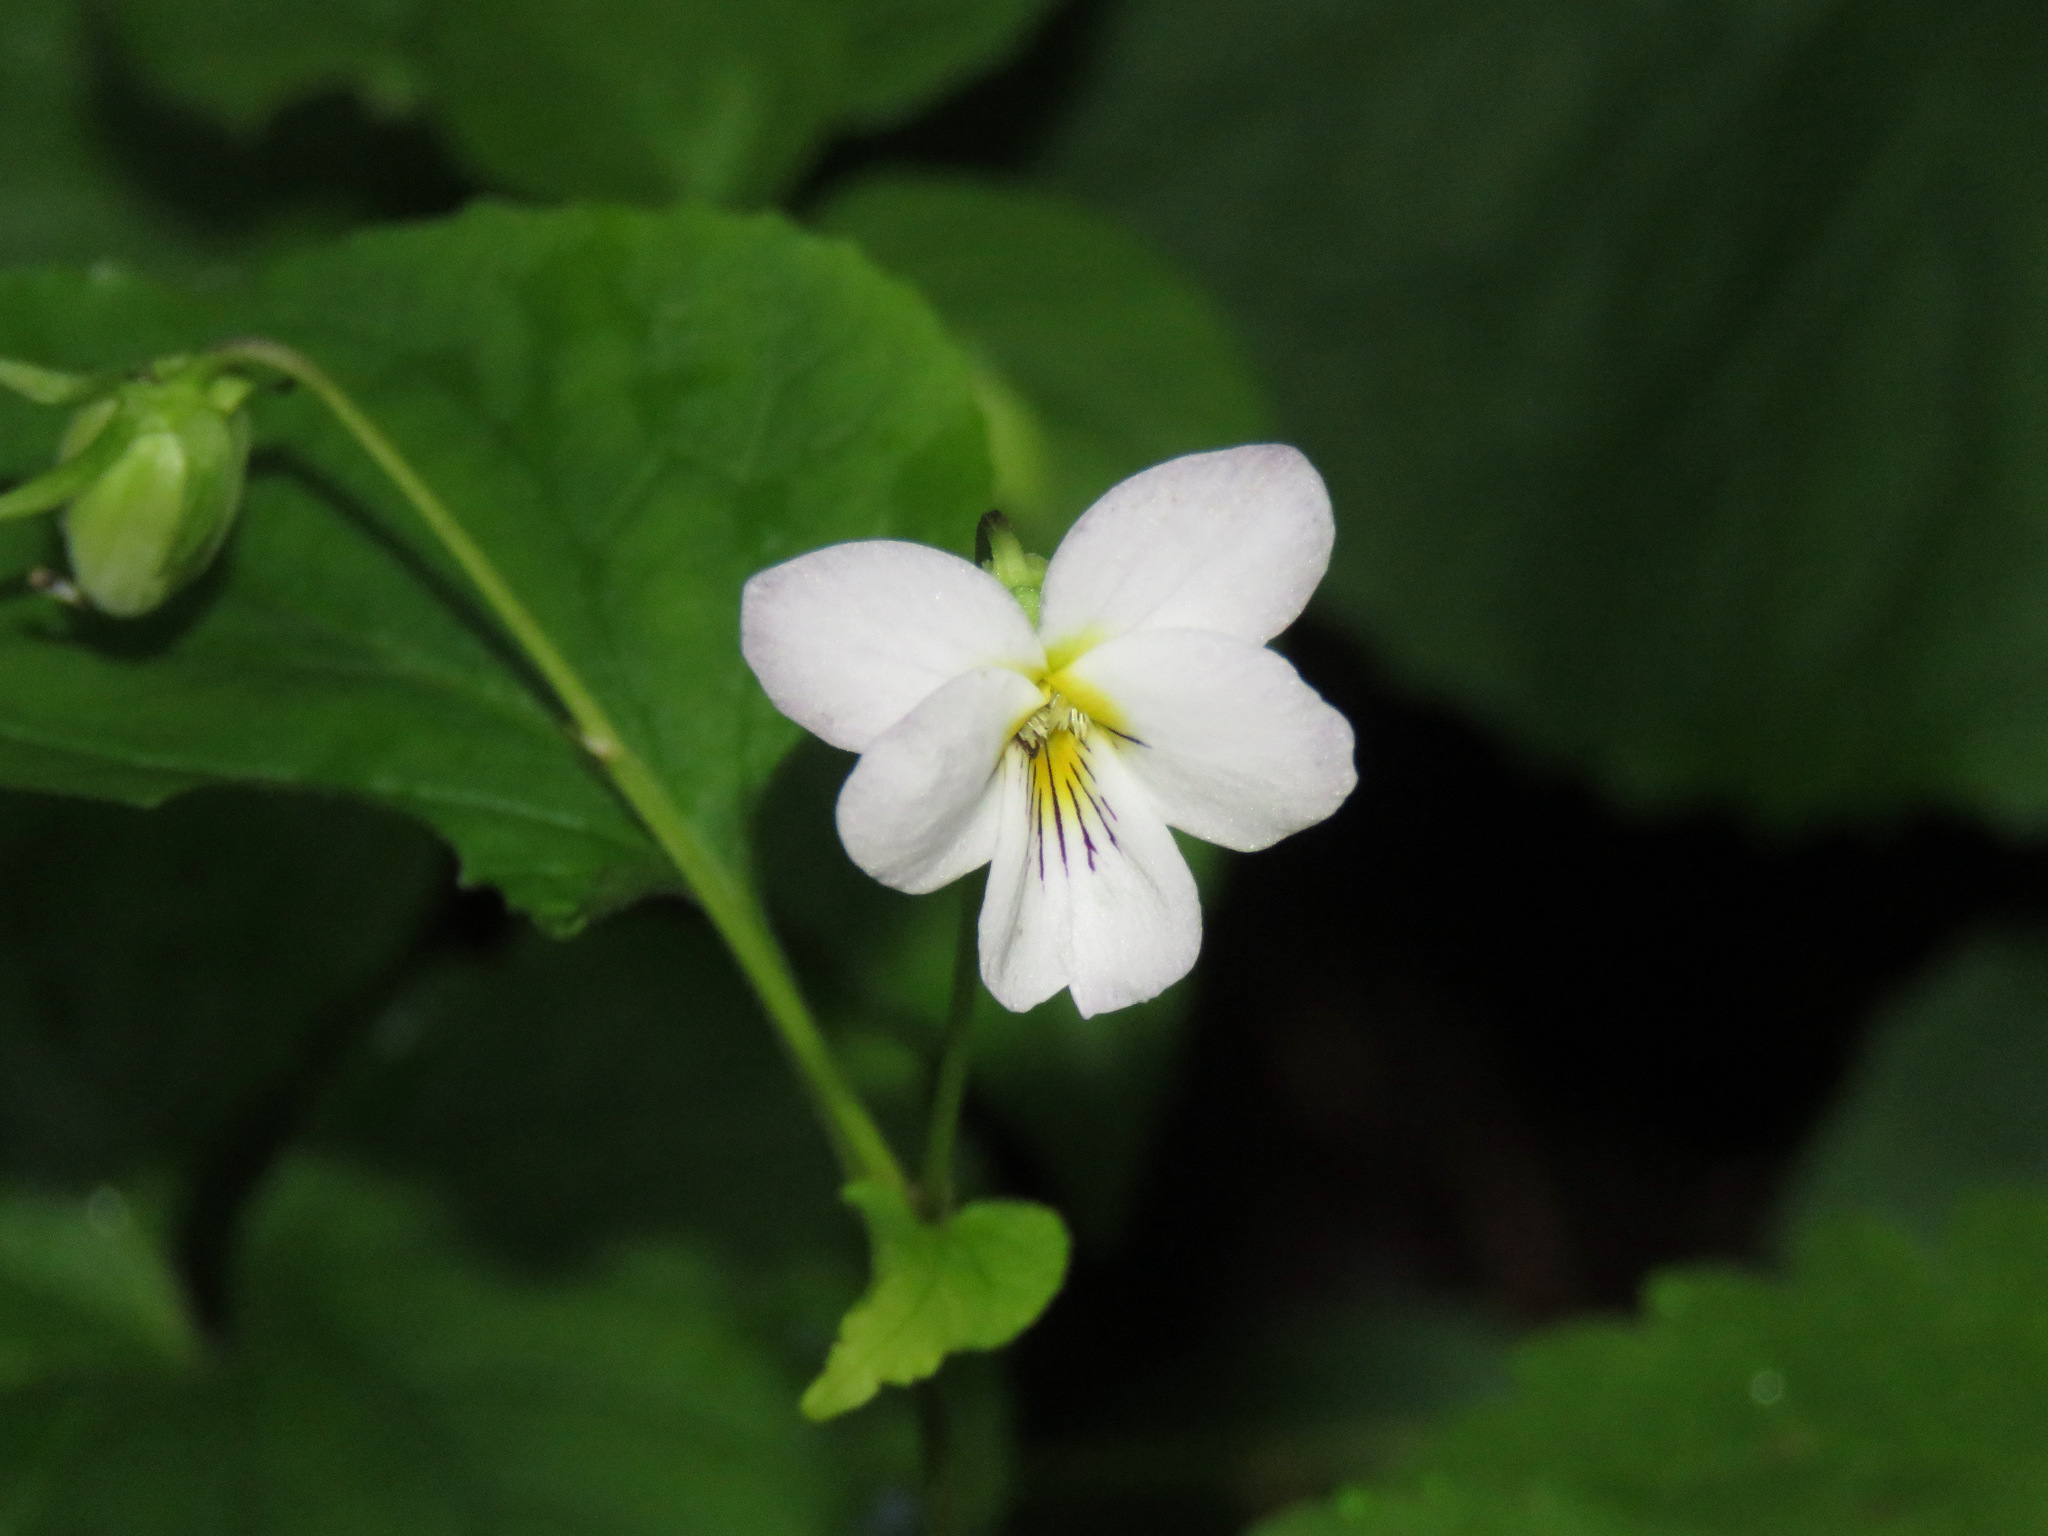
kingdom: Plantae
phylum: Tracheophyta
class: Magnoliopsida
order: Malpighiales
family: Violaceae
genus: Viola
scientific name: Viola canadensis
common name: Canada violet
